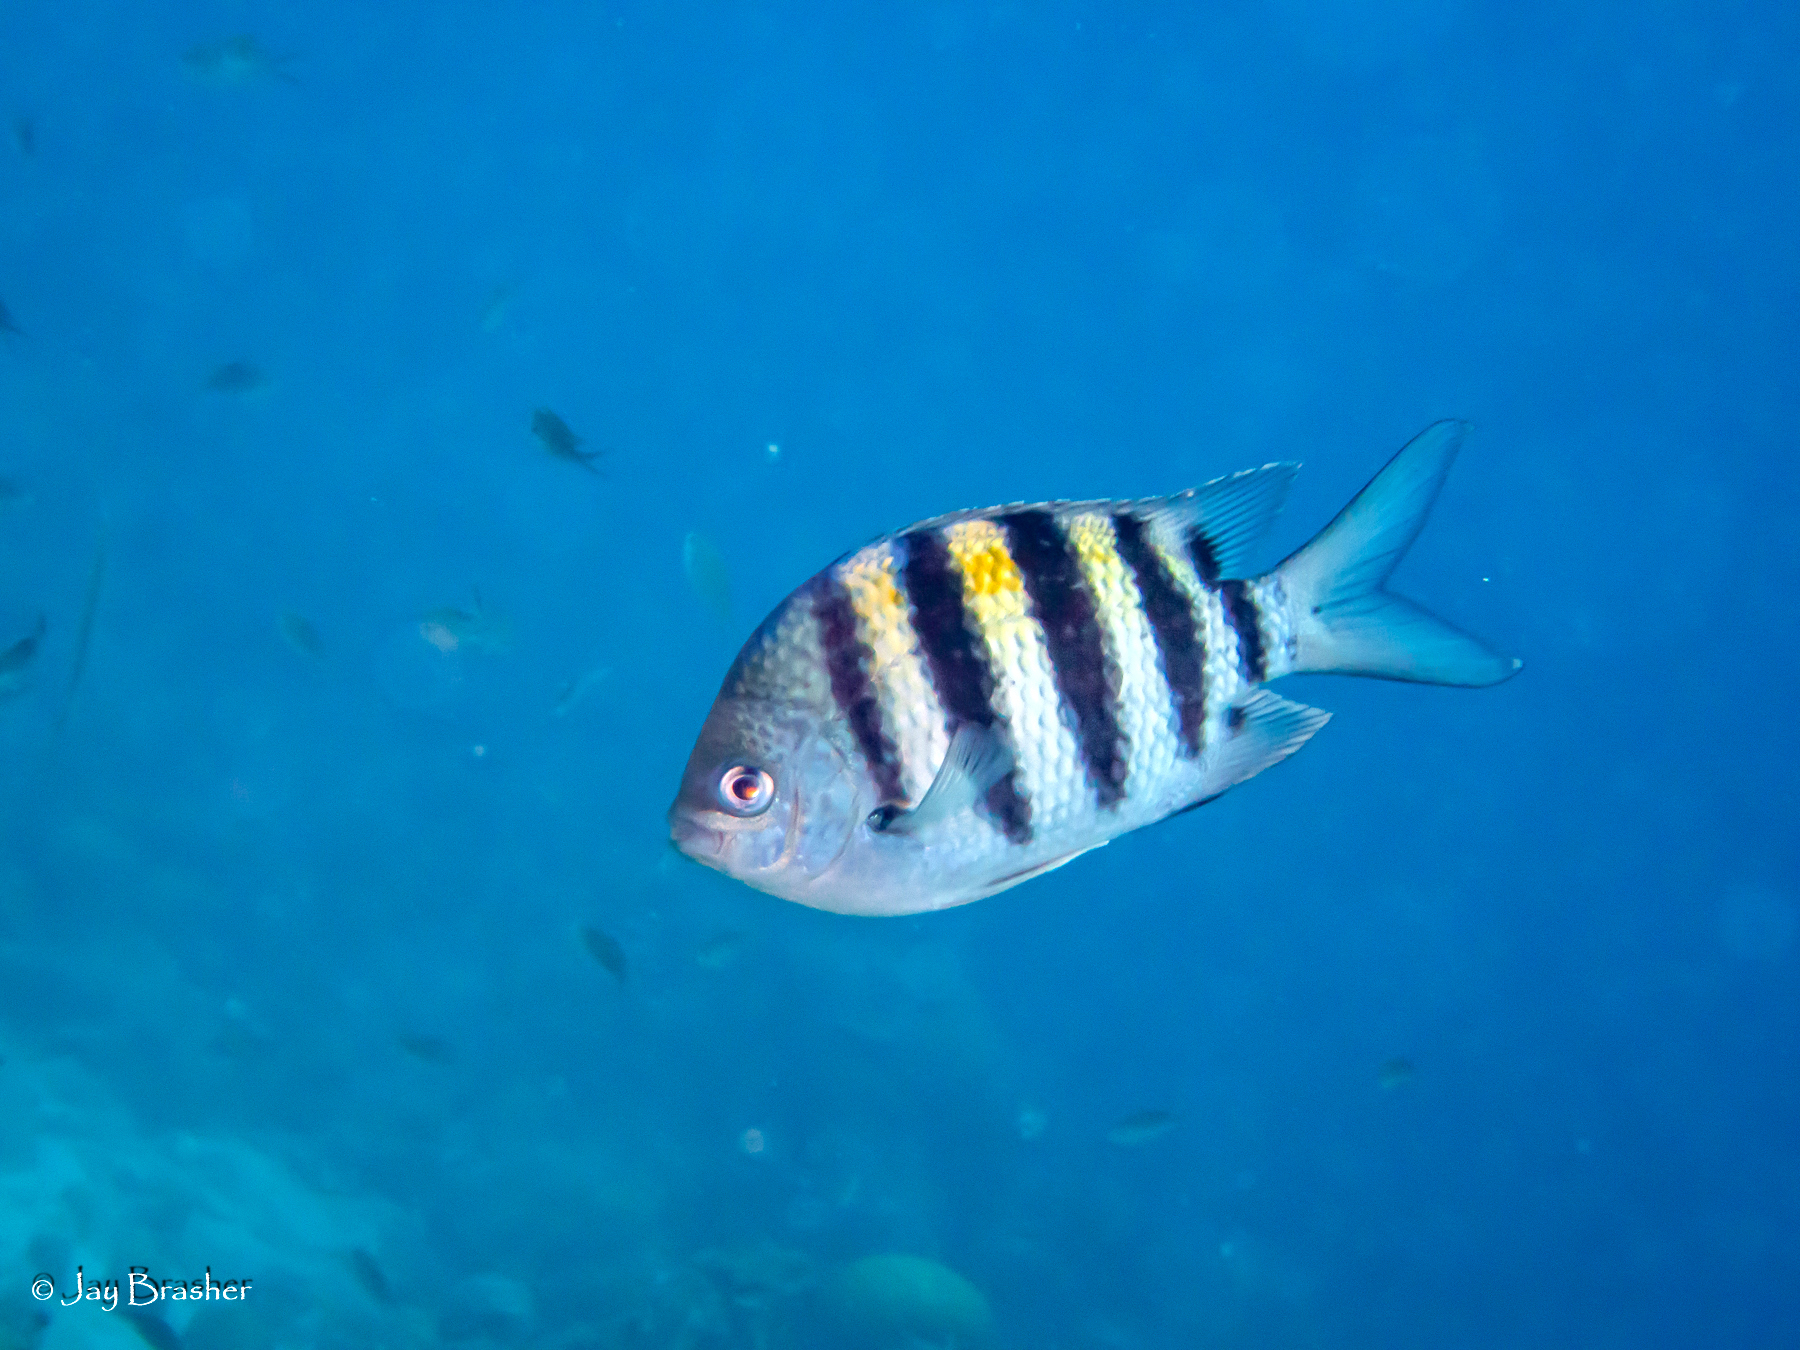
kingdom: Animalia
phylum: Chordata
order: Perciformes
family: Pomacentridae
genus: Abudefduf
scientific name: Abudefduf saxatilis
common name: Sergeant major
